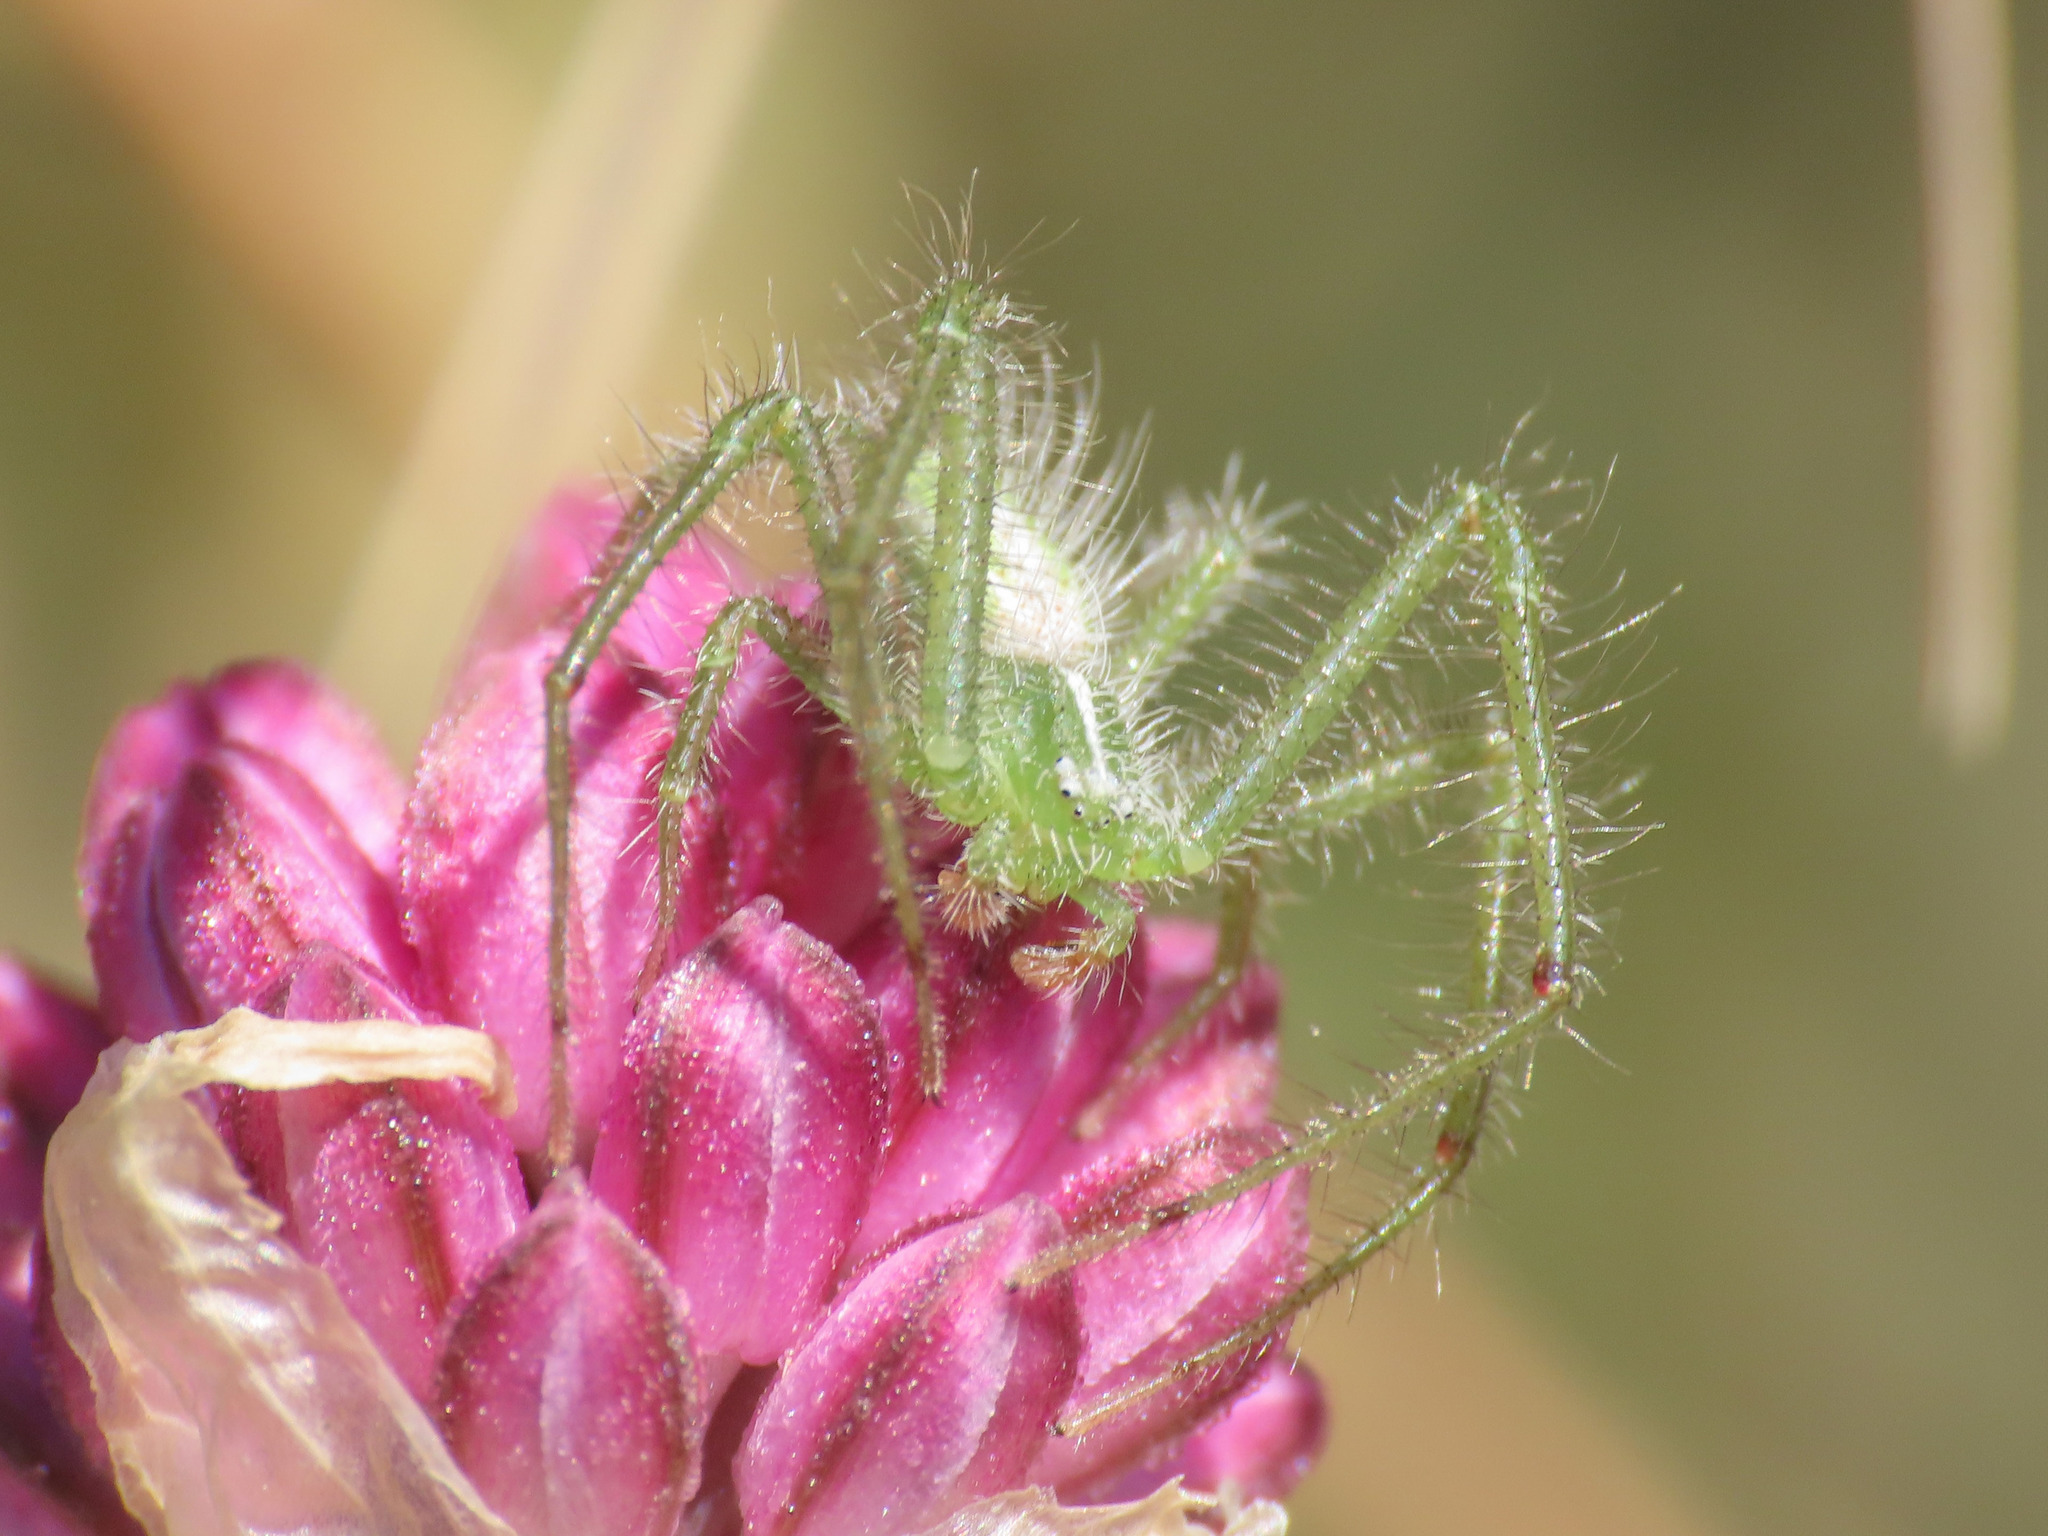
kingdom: Animalia
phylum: Arthropoda
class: Arachnida
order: Araneae
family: Thomisidae
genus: Heriaeus
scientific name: Heriaeus oblongus
